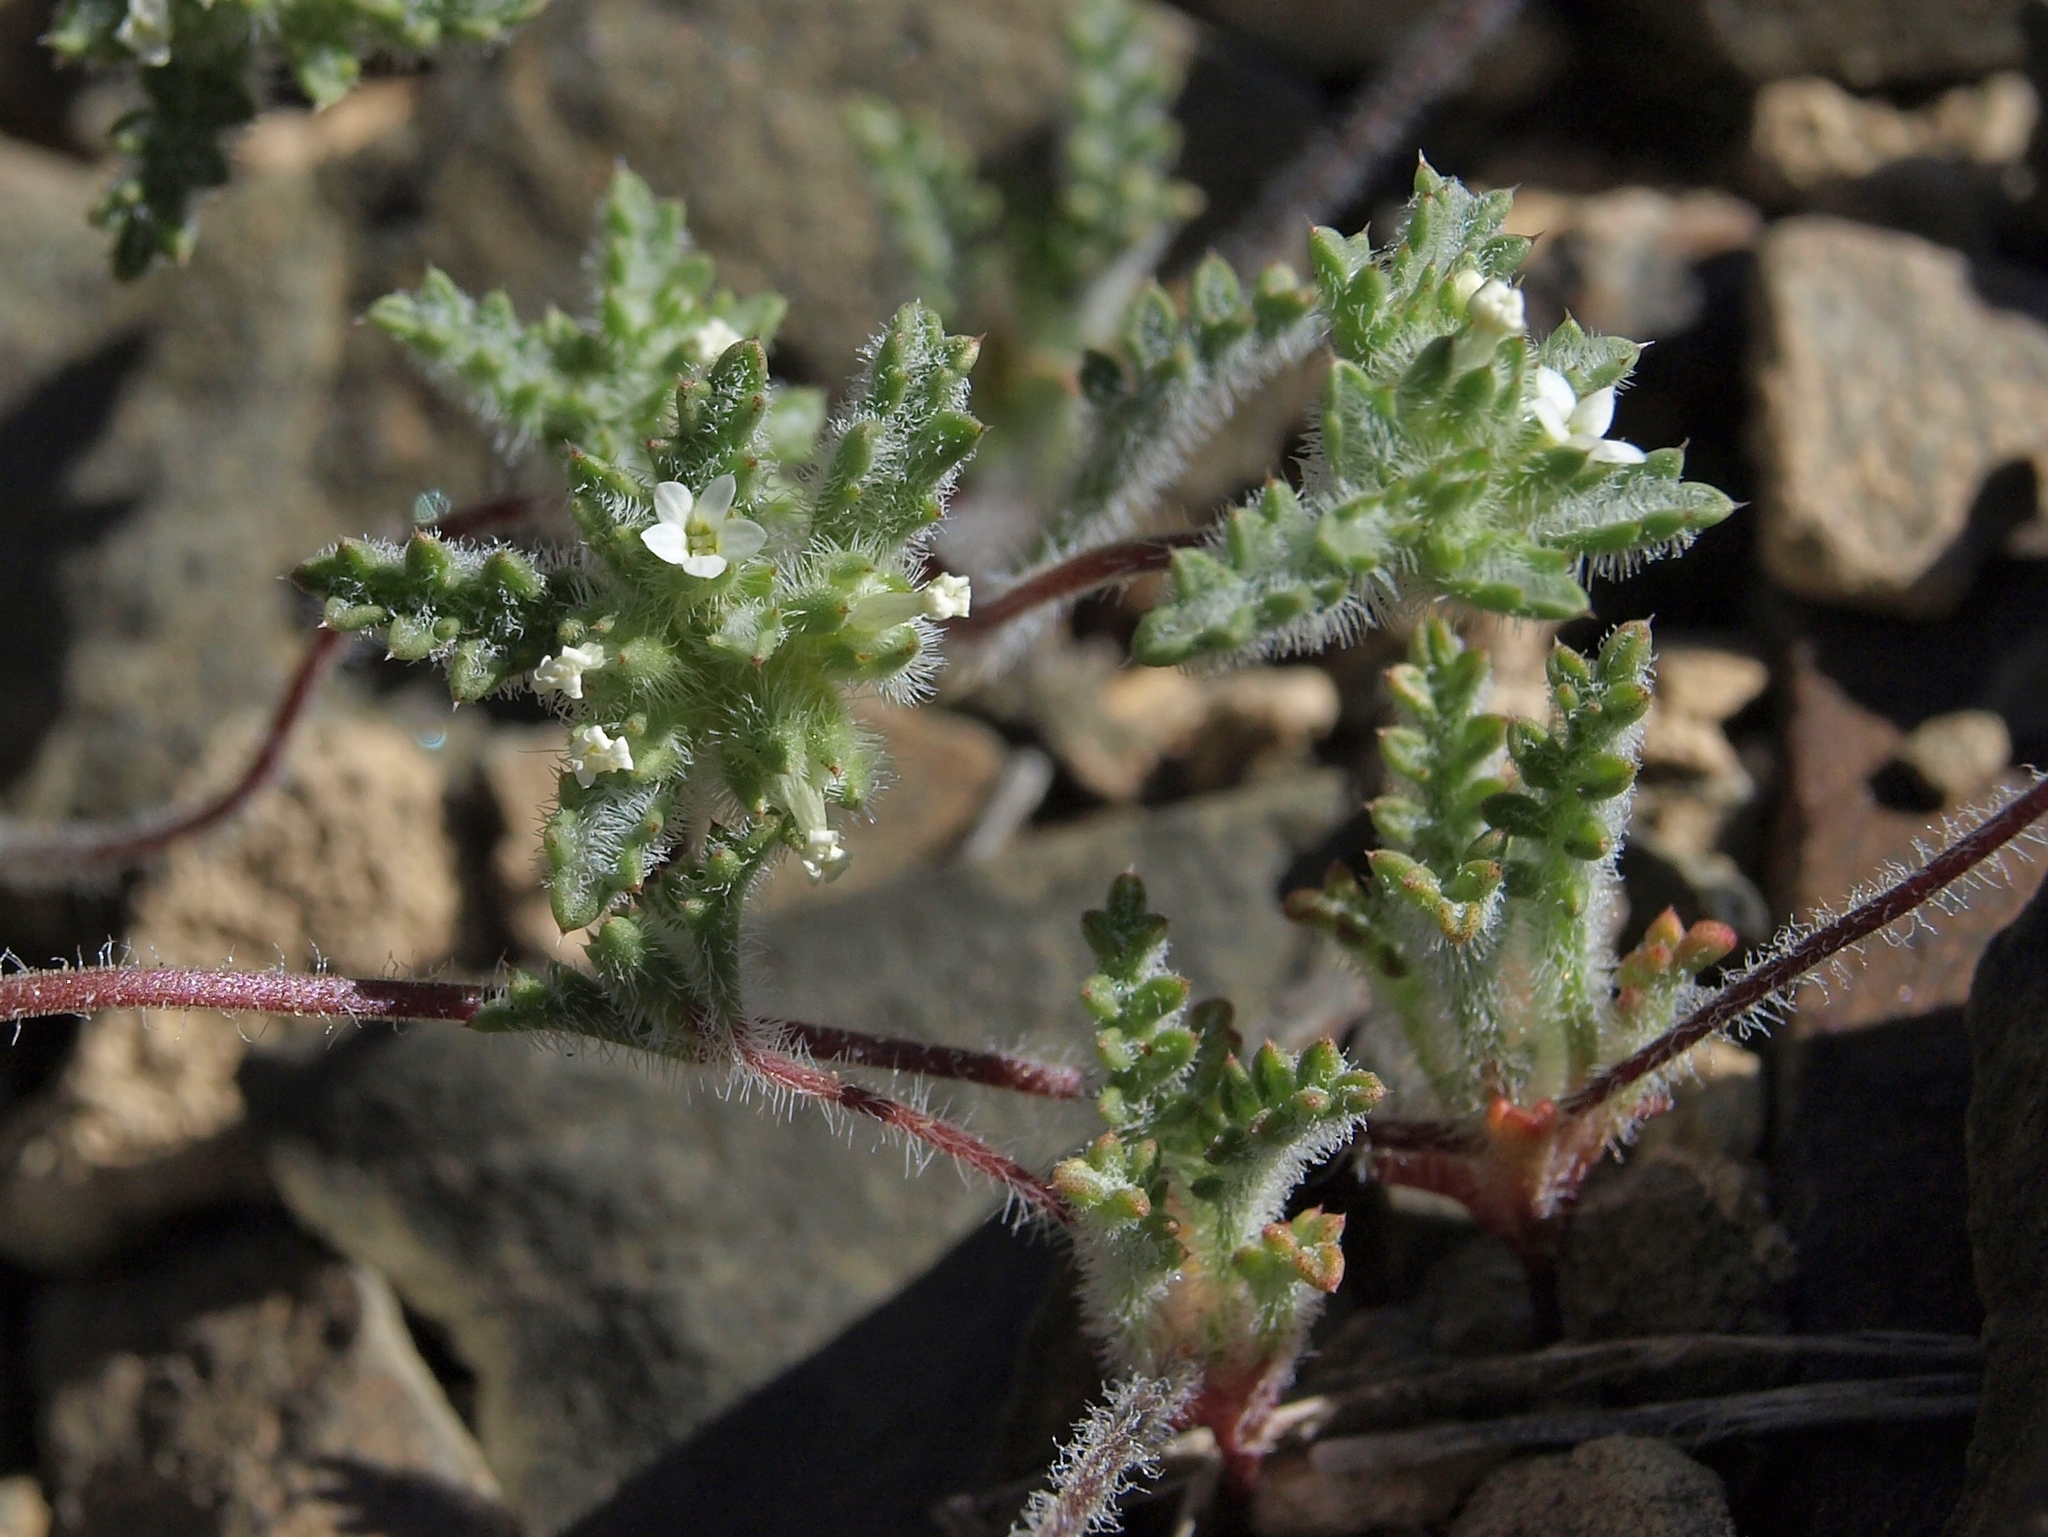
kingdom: Plantae
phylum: Tracheophyta
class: Magnoliopsida
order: Ericales
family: Polemoniaceae
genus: Ipomopsis
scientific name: Ipomopsis polycladon
